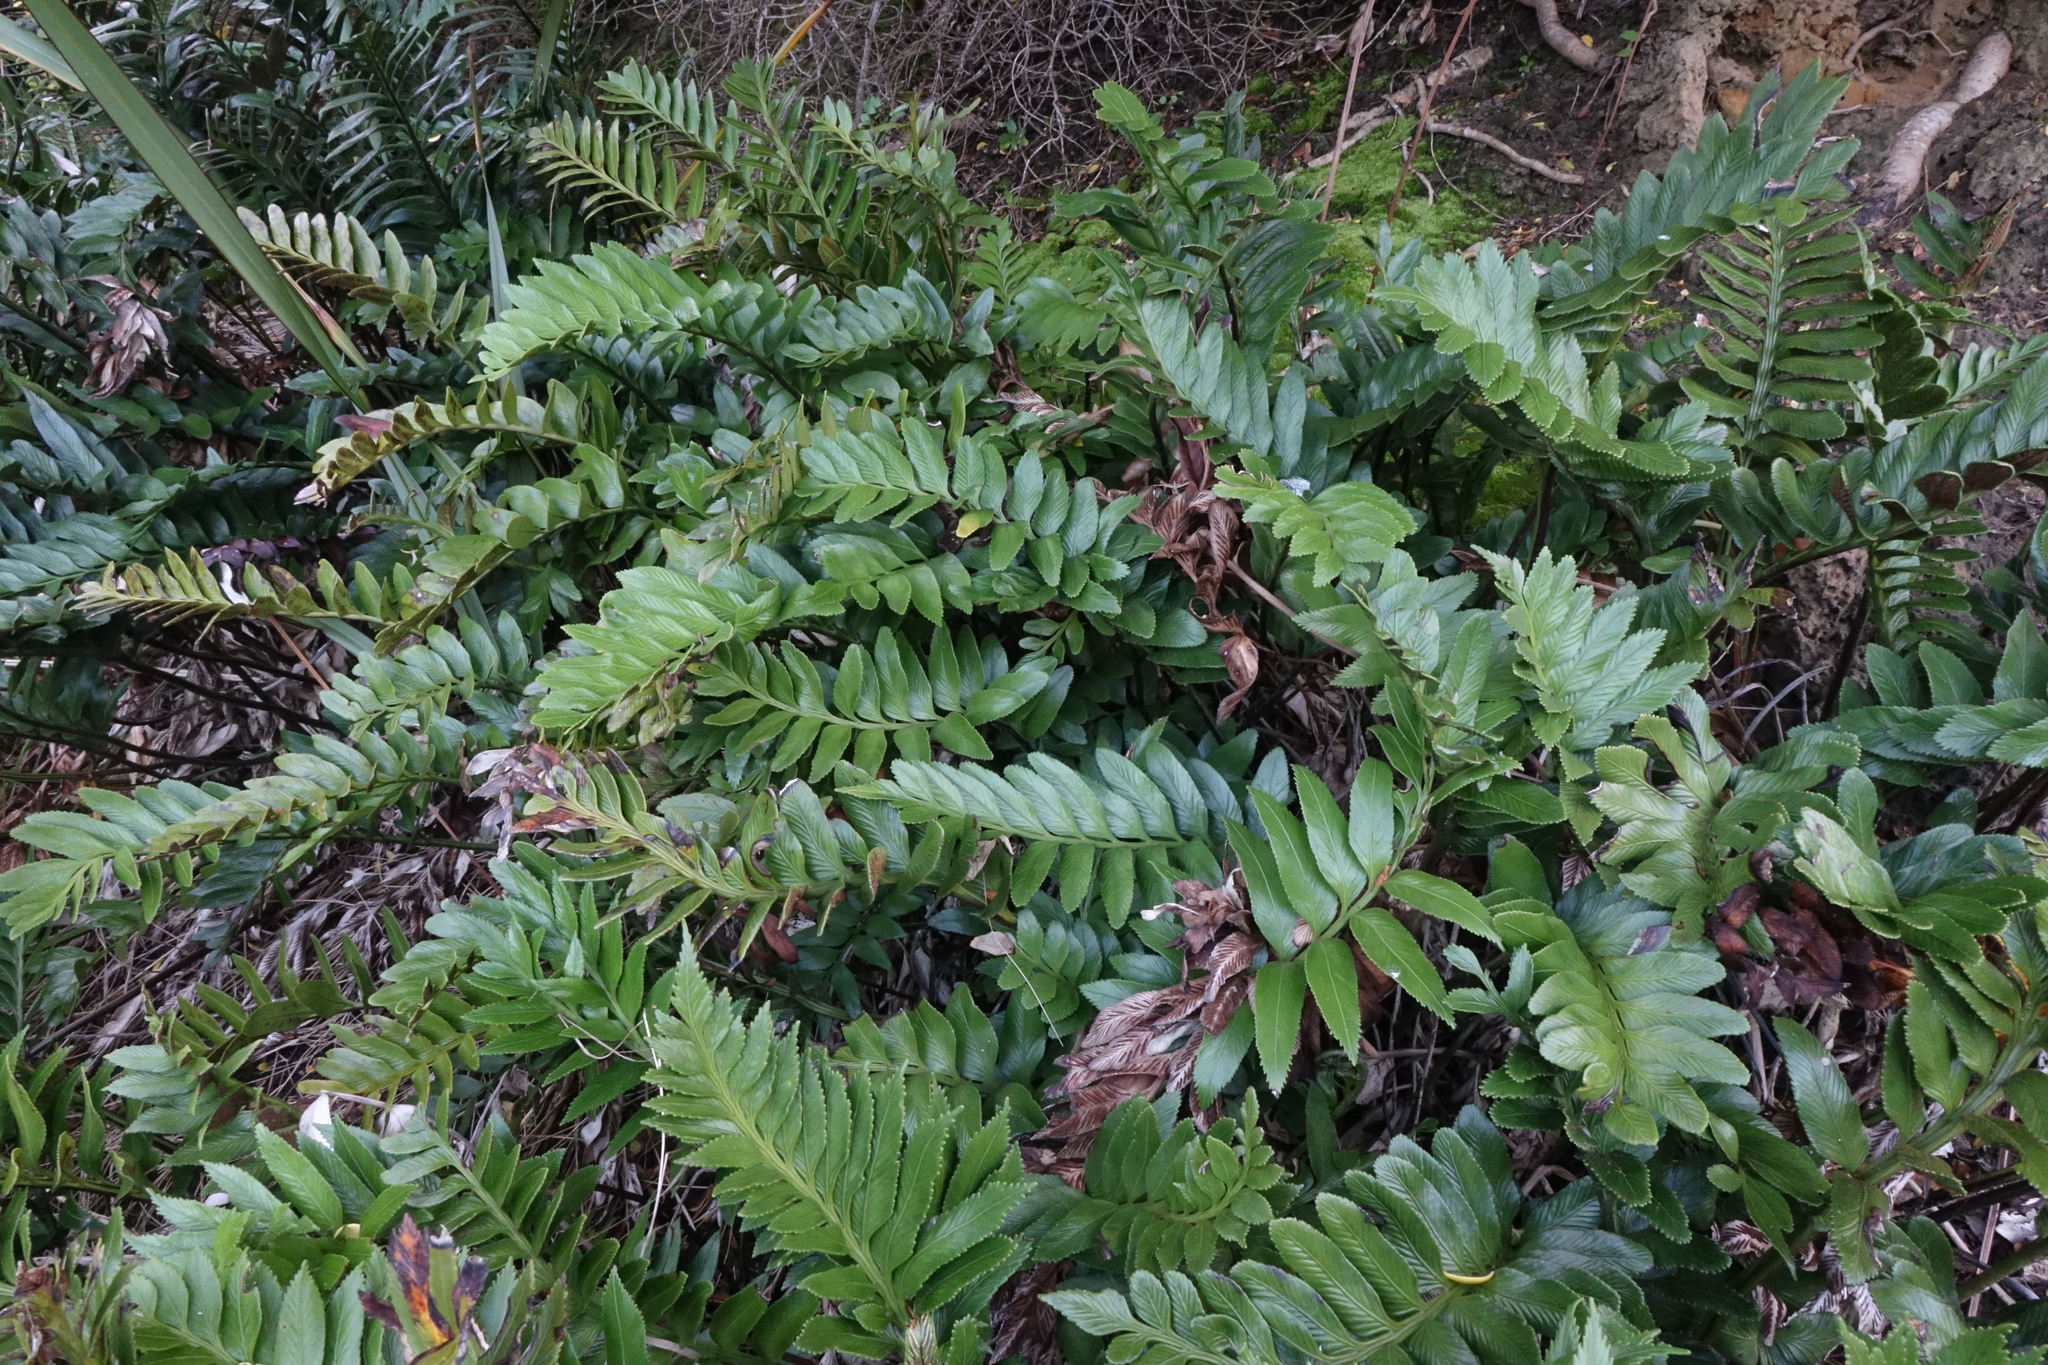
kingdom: Plantae
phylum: Tracheophyta
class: Polypodiopsida
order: Polypodiales
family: Aspleniaceae
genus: Asplenium
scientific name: Asplenium obtusatum
